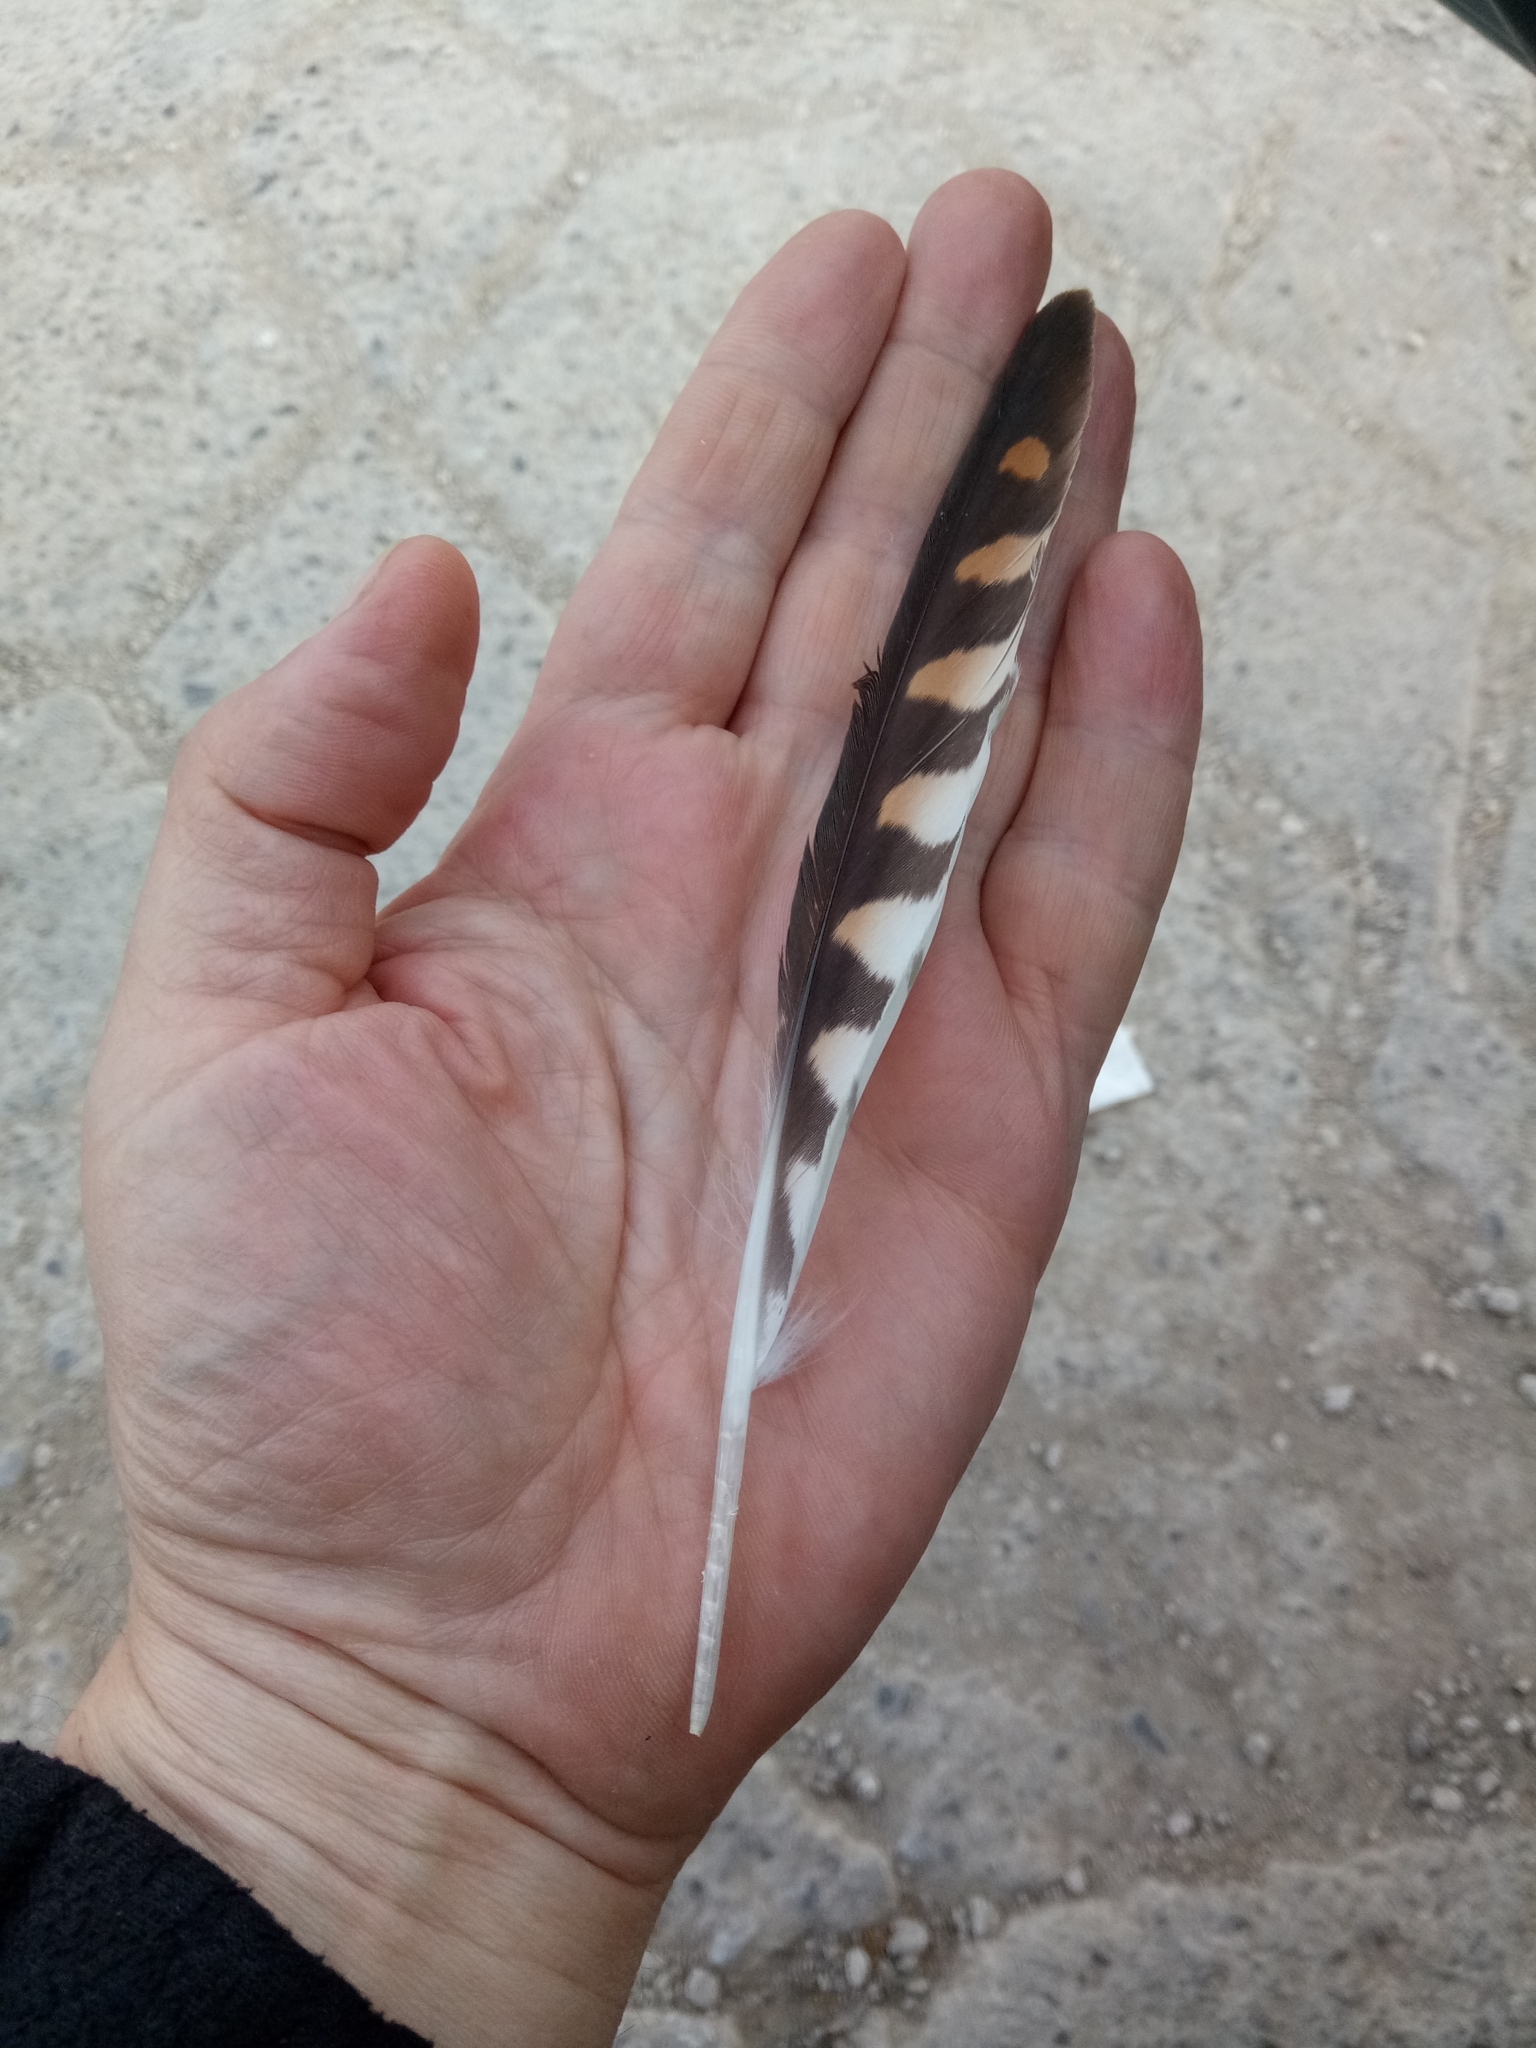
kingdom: Animalia
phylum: Chordata
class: Aves
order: Falconiformes
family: Falconidae
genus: Falco
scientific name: Falco tinnunculus
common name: Common kestrel
